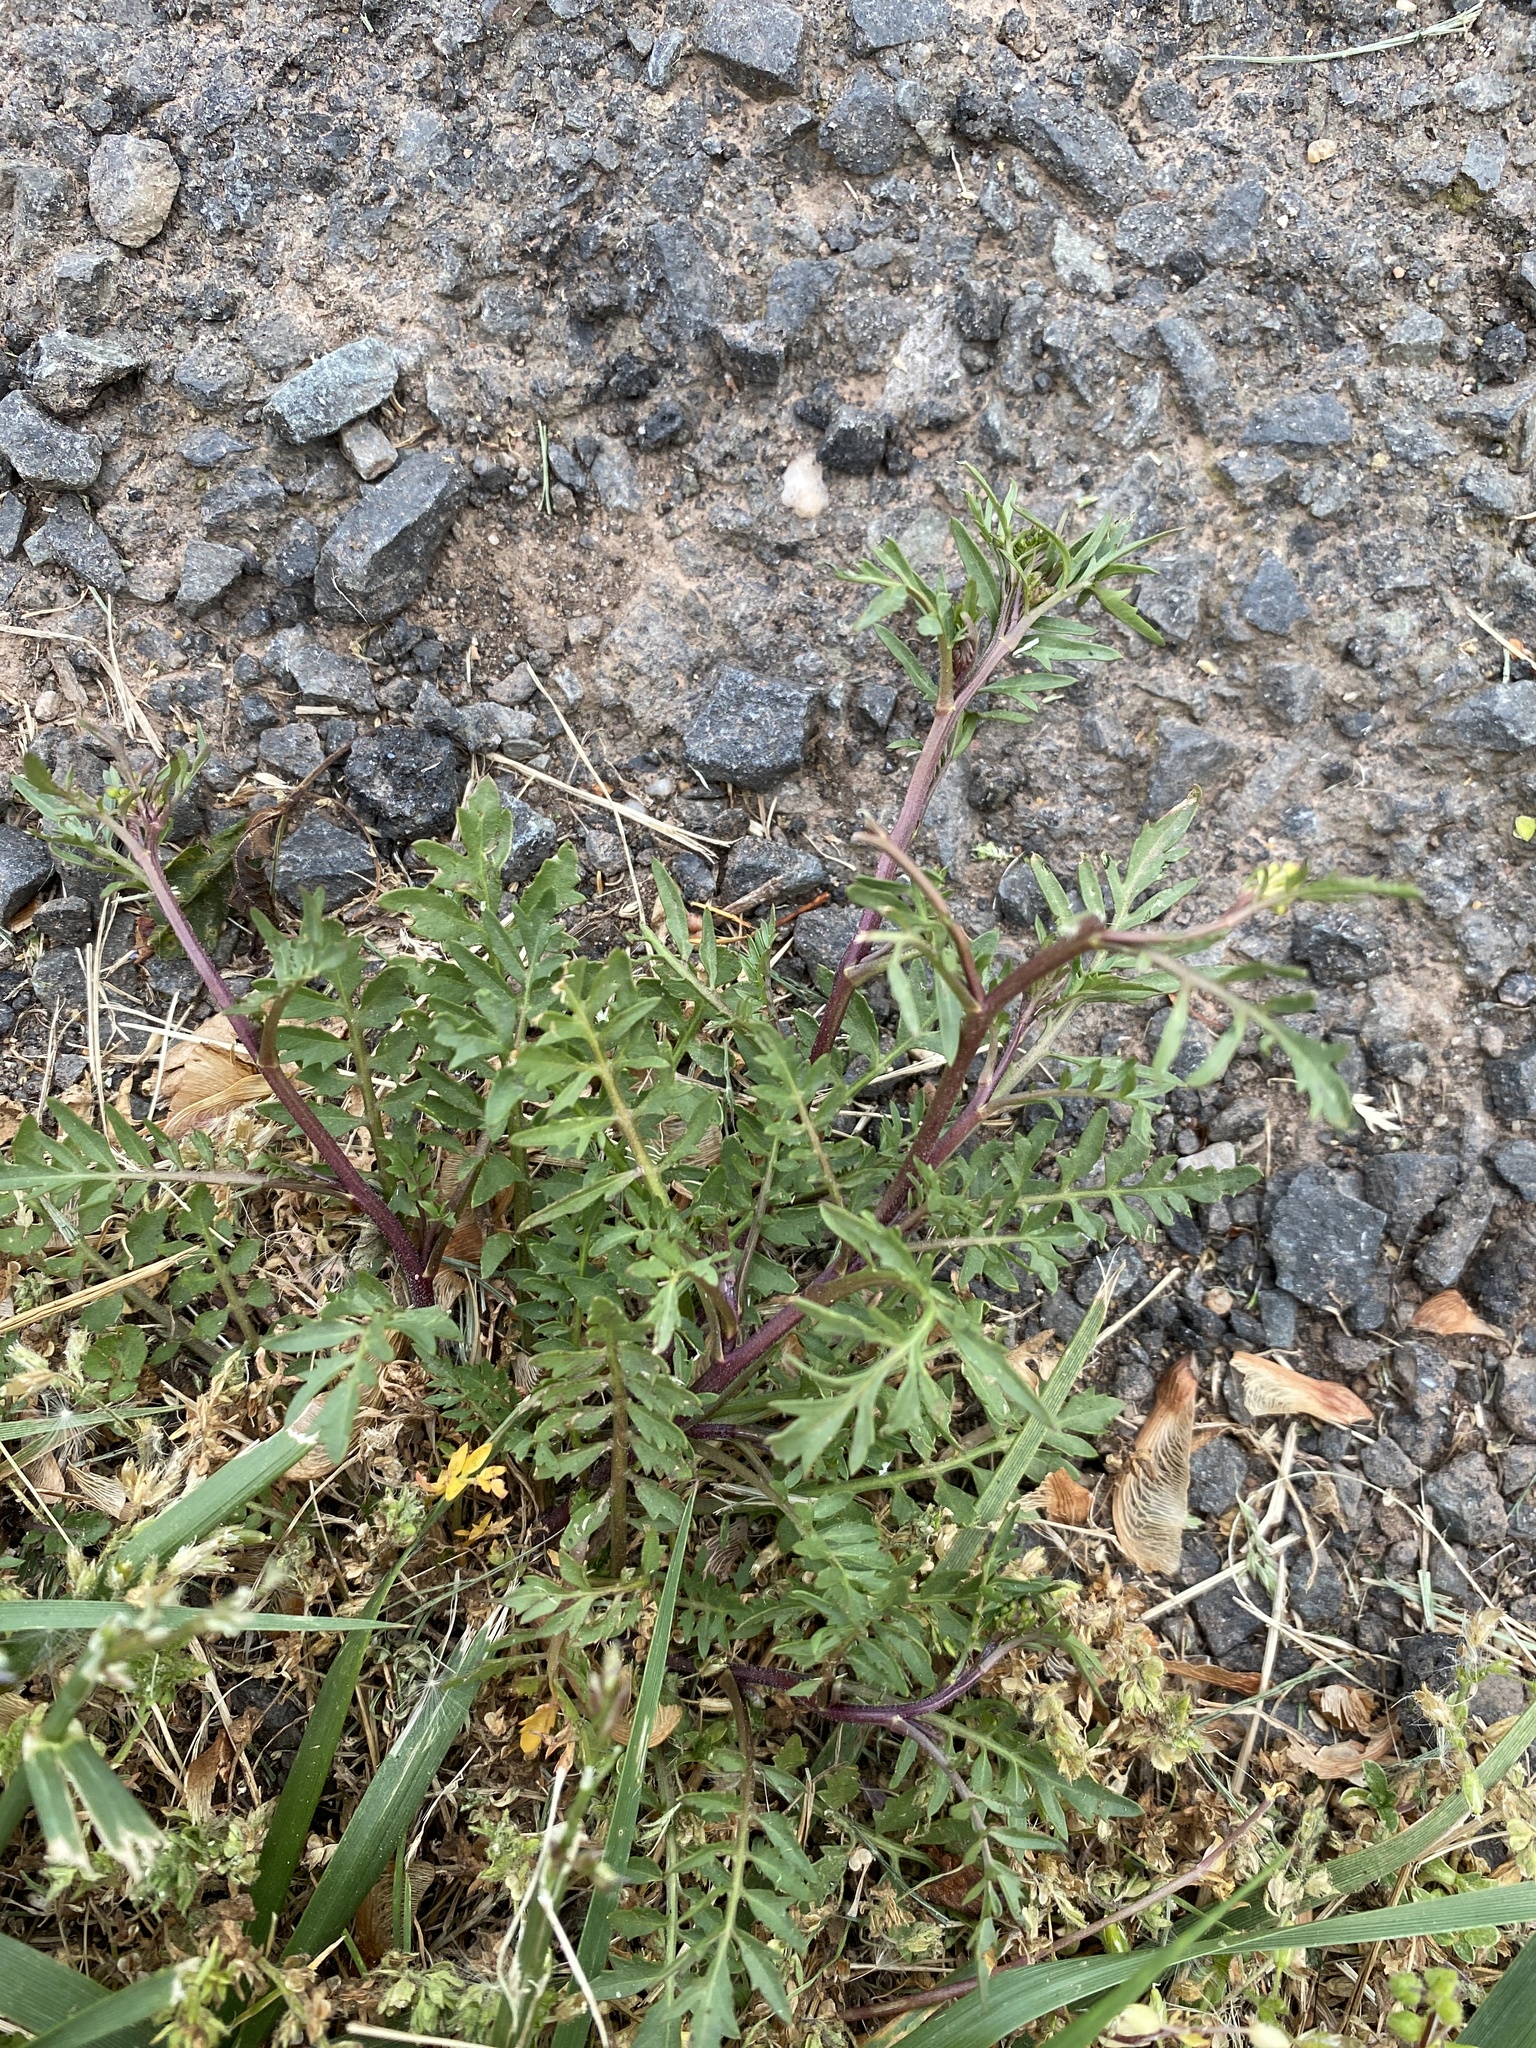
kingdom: Plantae
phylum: Tracheophyta
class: Magnoliopsida
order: Brassicales
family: Brassicaceae
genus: Rorippa
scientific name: Rorippa sylvestris
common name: Creeping yellowcress
